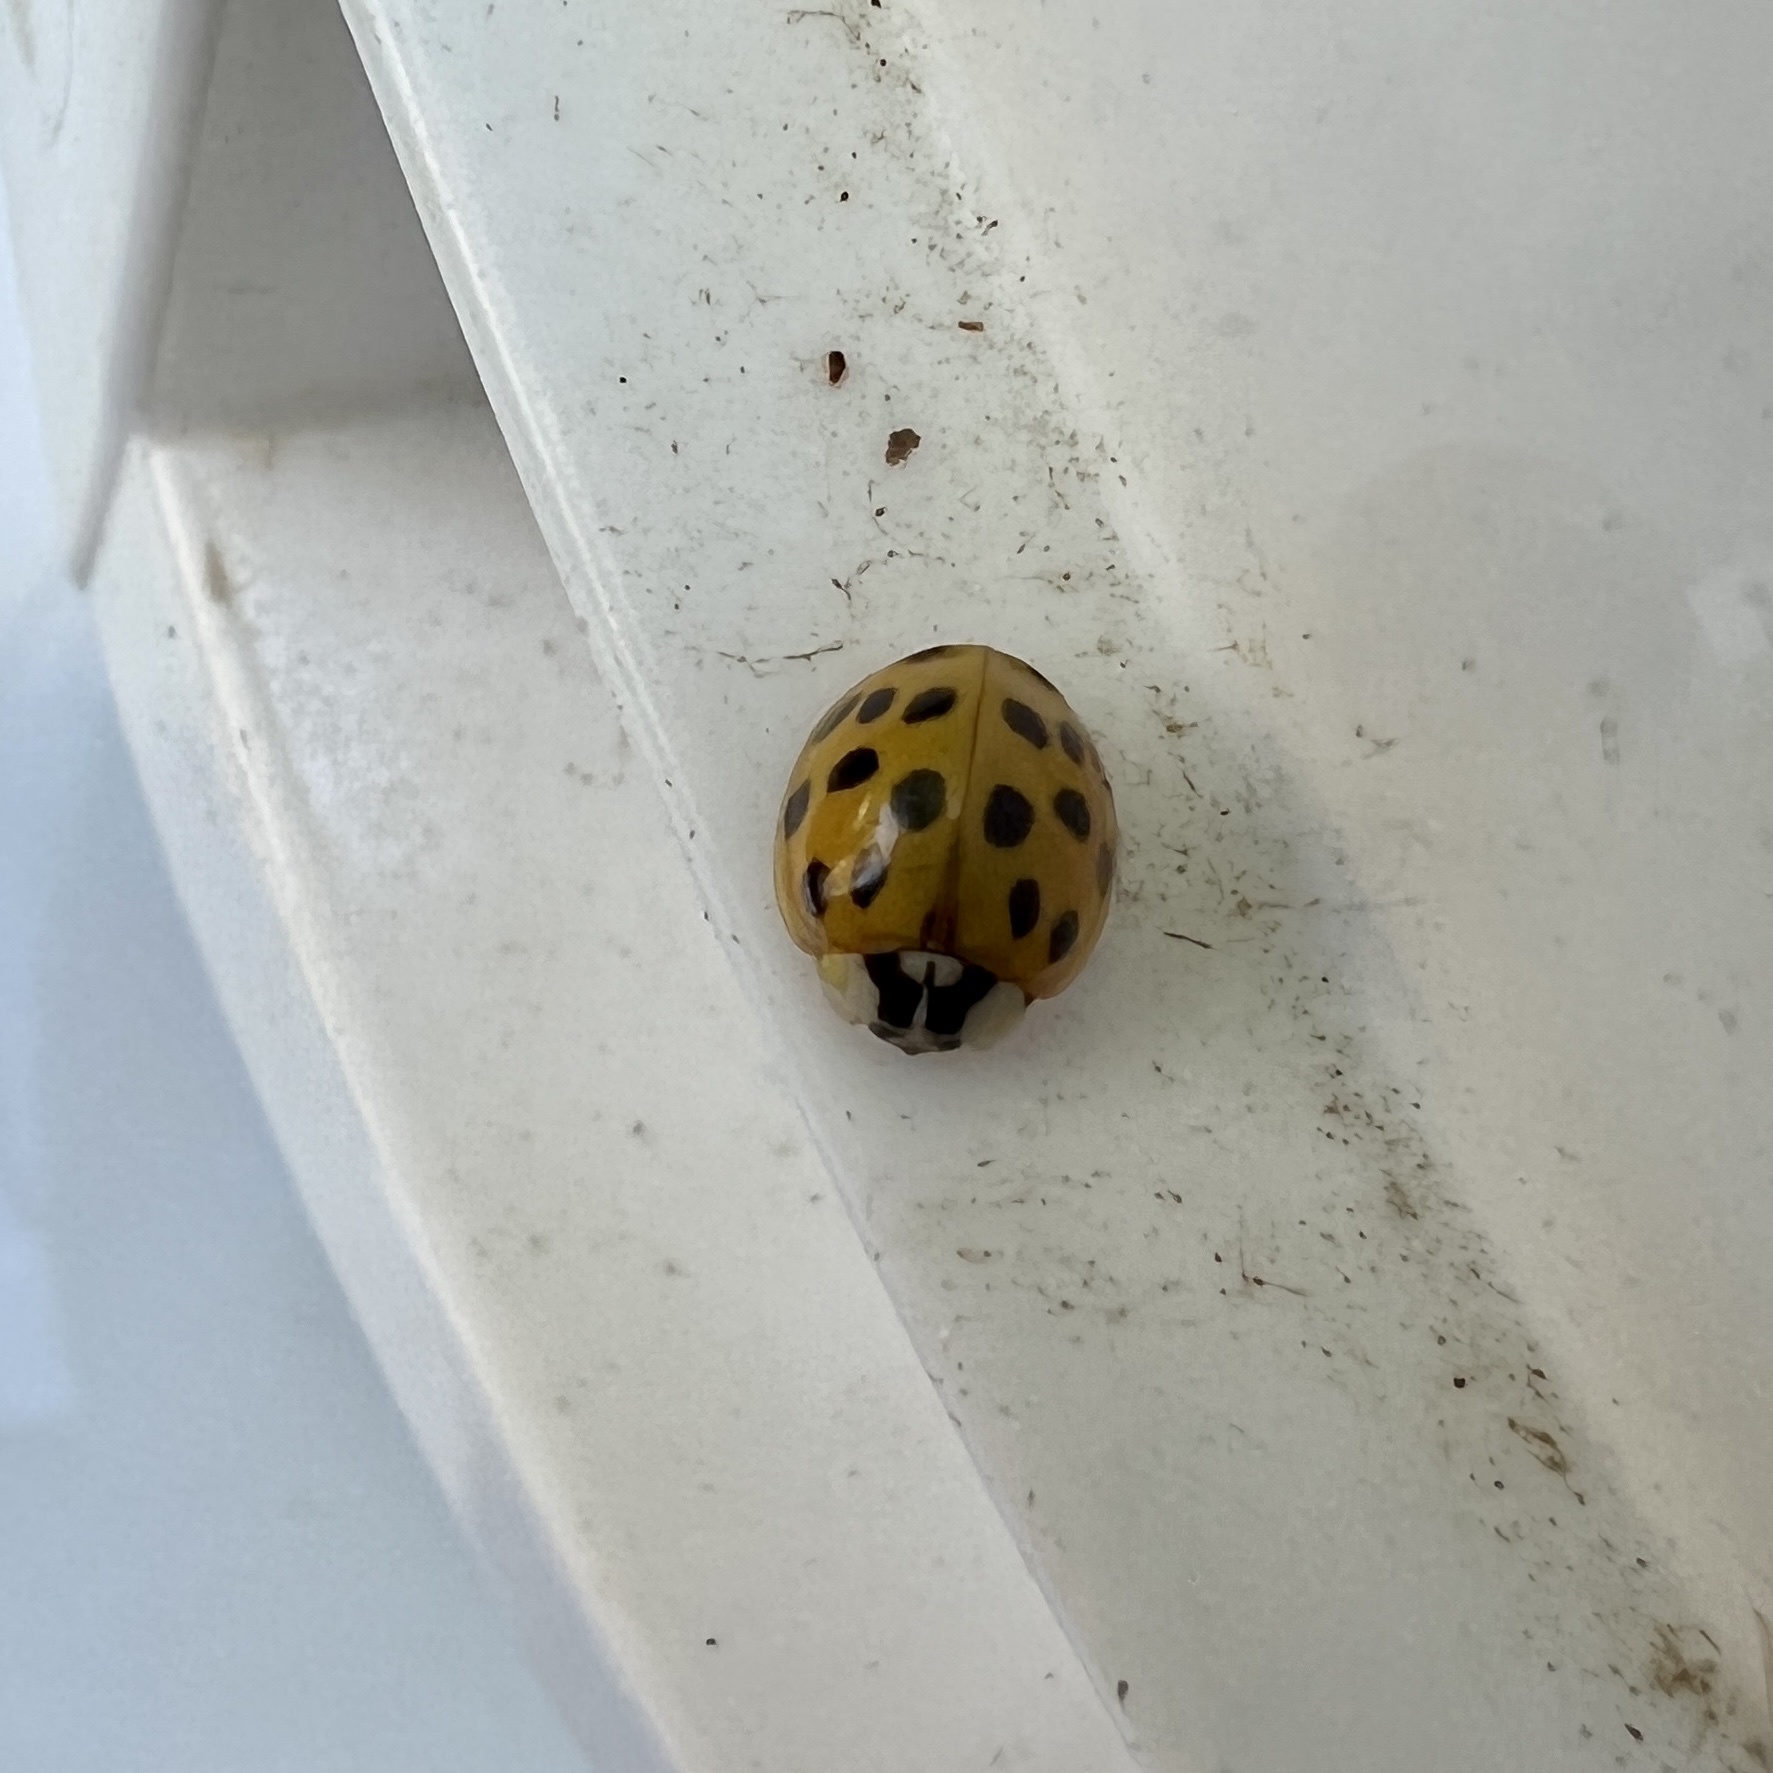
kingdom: Animalia
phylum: Arthropoda
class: Insecta
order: Coleoptera
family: Coccinellidae
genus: Harmonia
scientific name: Harmonia axyridis
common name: Harlequin ladybird
